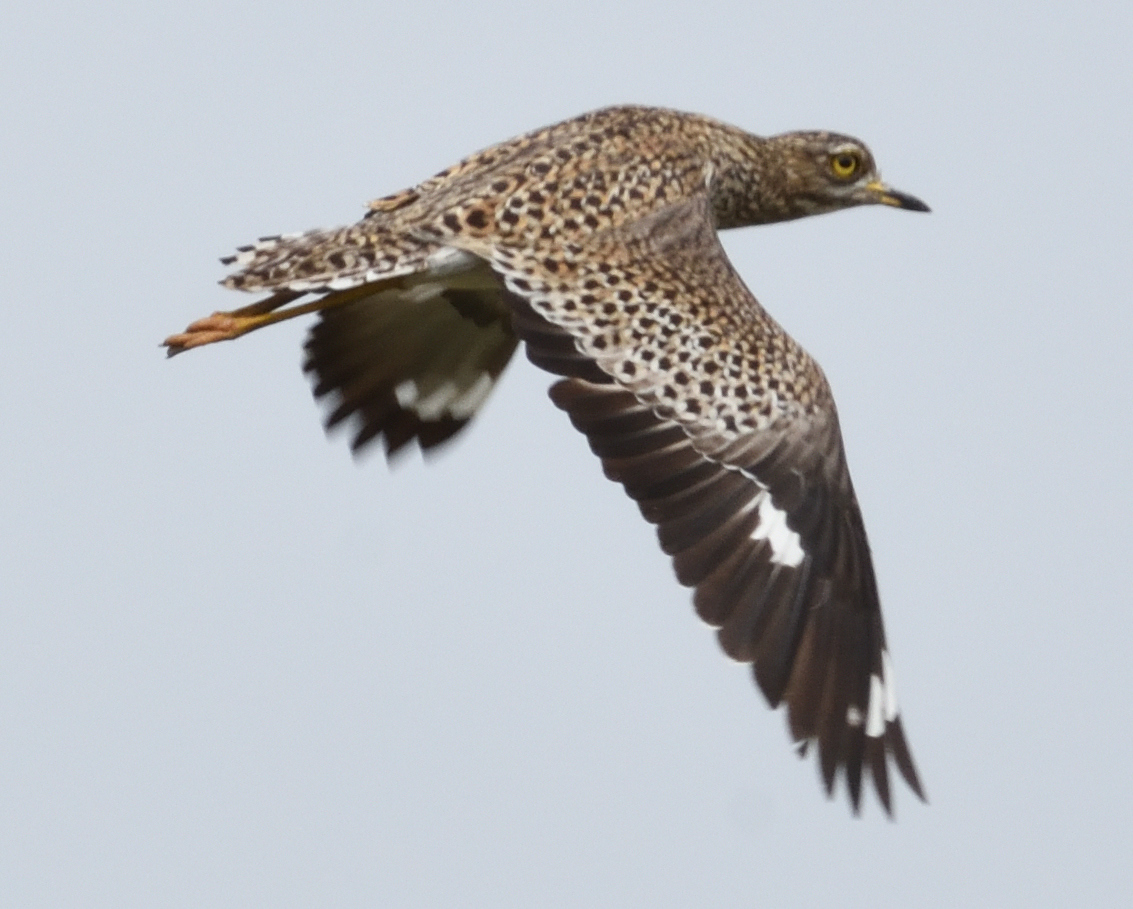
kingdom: Animalia
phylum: Chordata
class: Aves
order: Charadriiformes
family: Burhinidae
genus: Burhinus
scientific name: Burhinus capensis
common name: Spotted thick-knee
